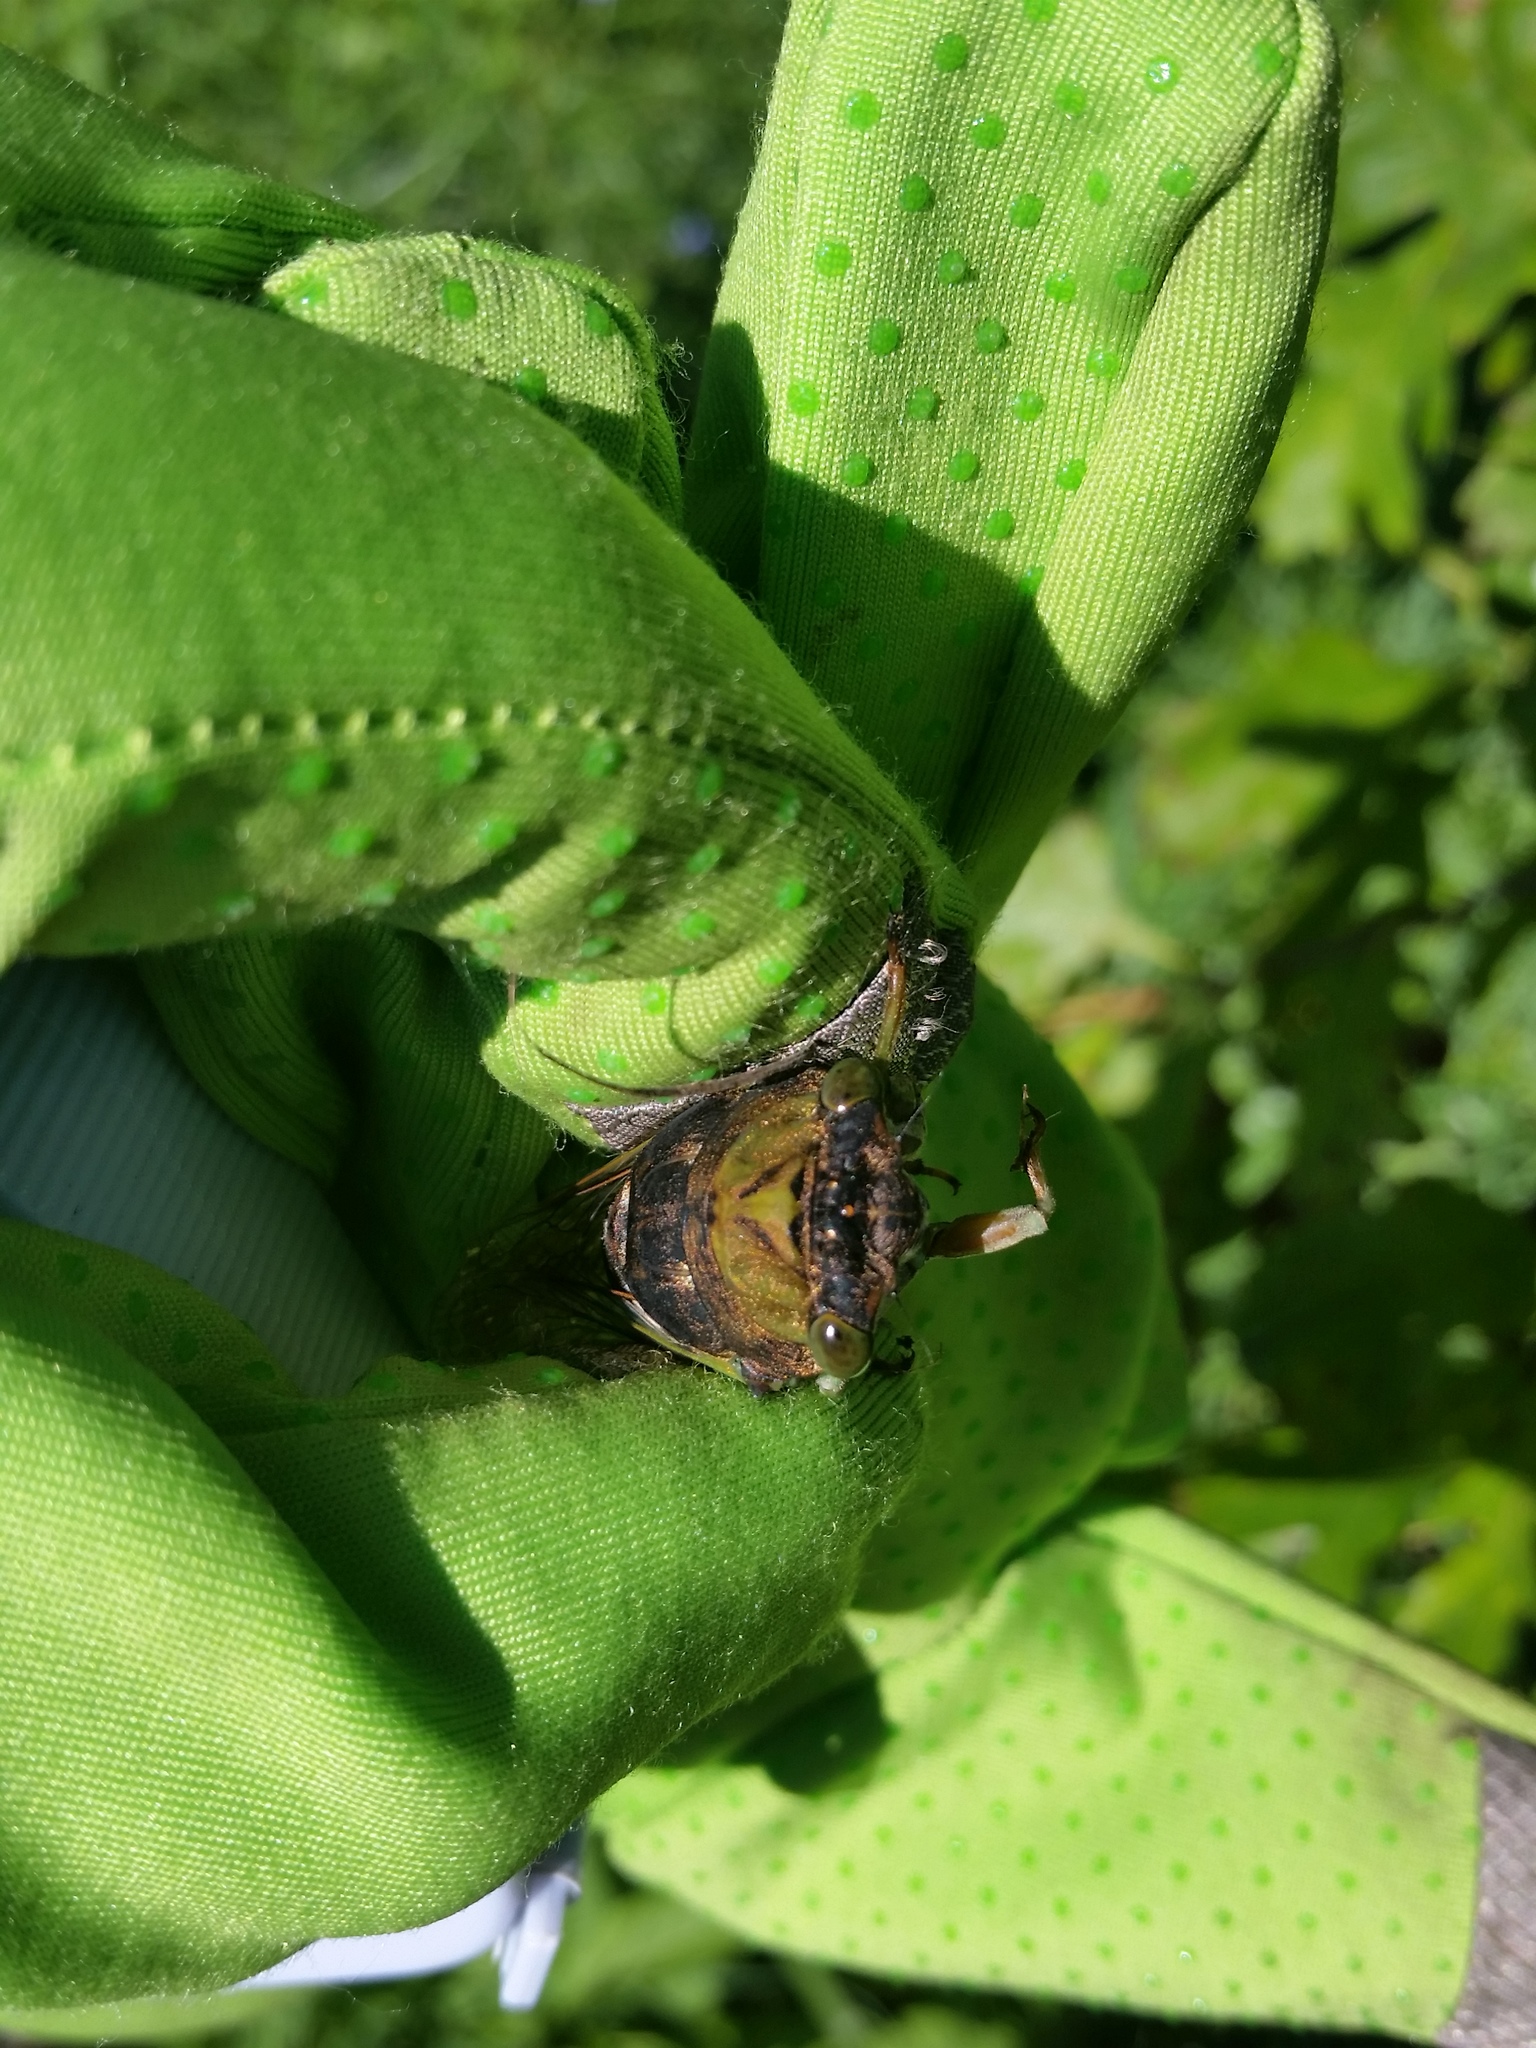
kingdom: Animalia
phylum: Arthropoda
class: Insecta
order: Hemiptera
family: Cicadidae
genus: Neotibicen
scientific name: Neotibicen tibicen
